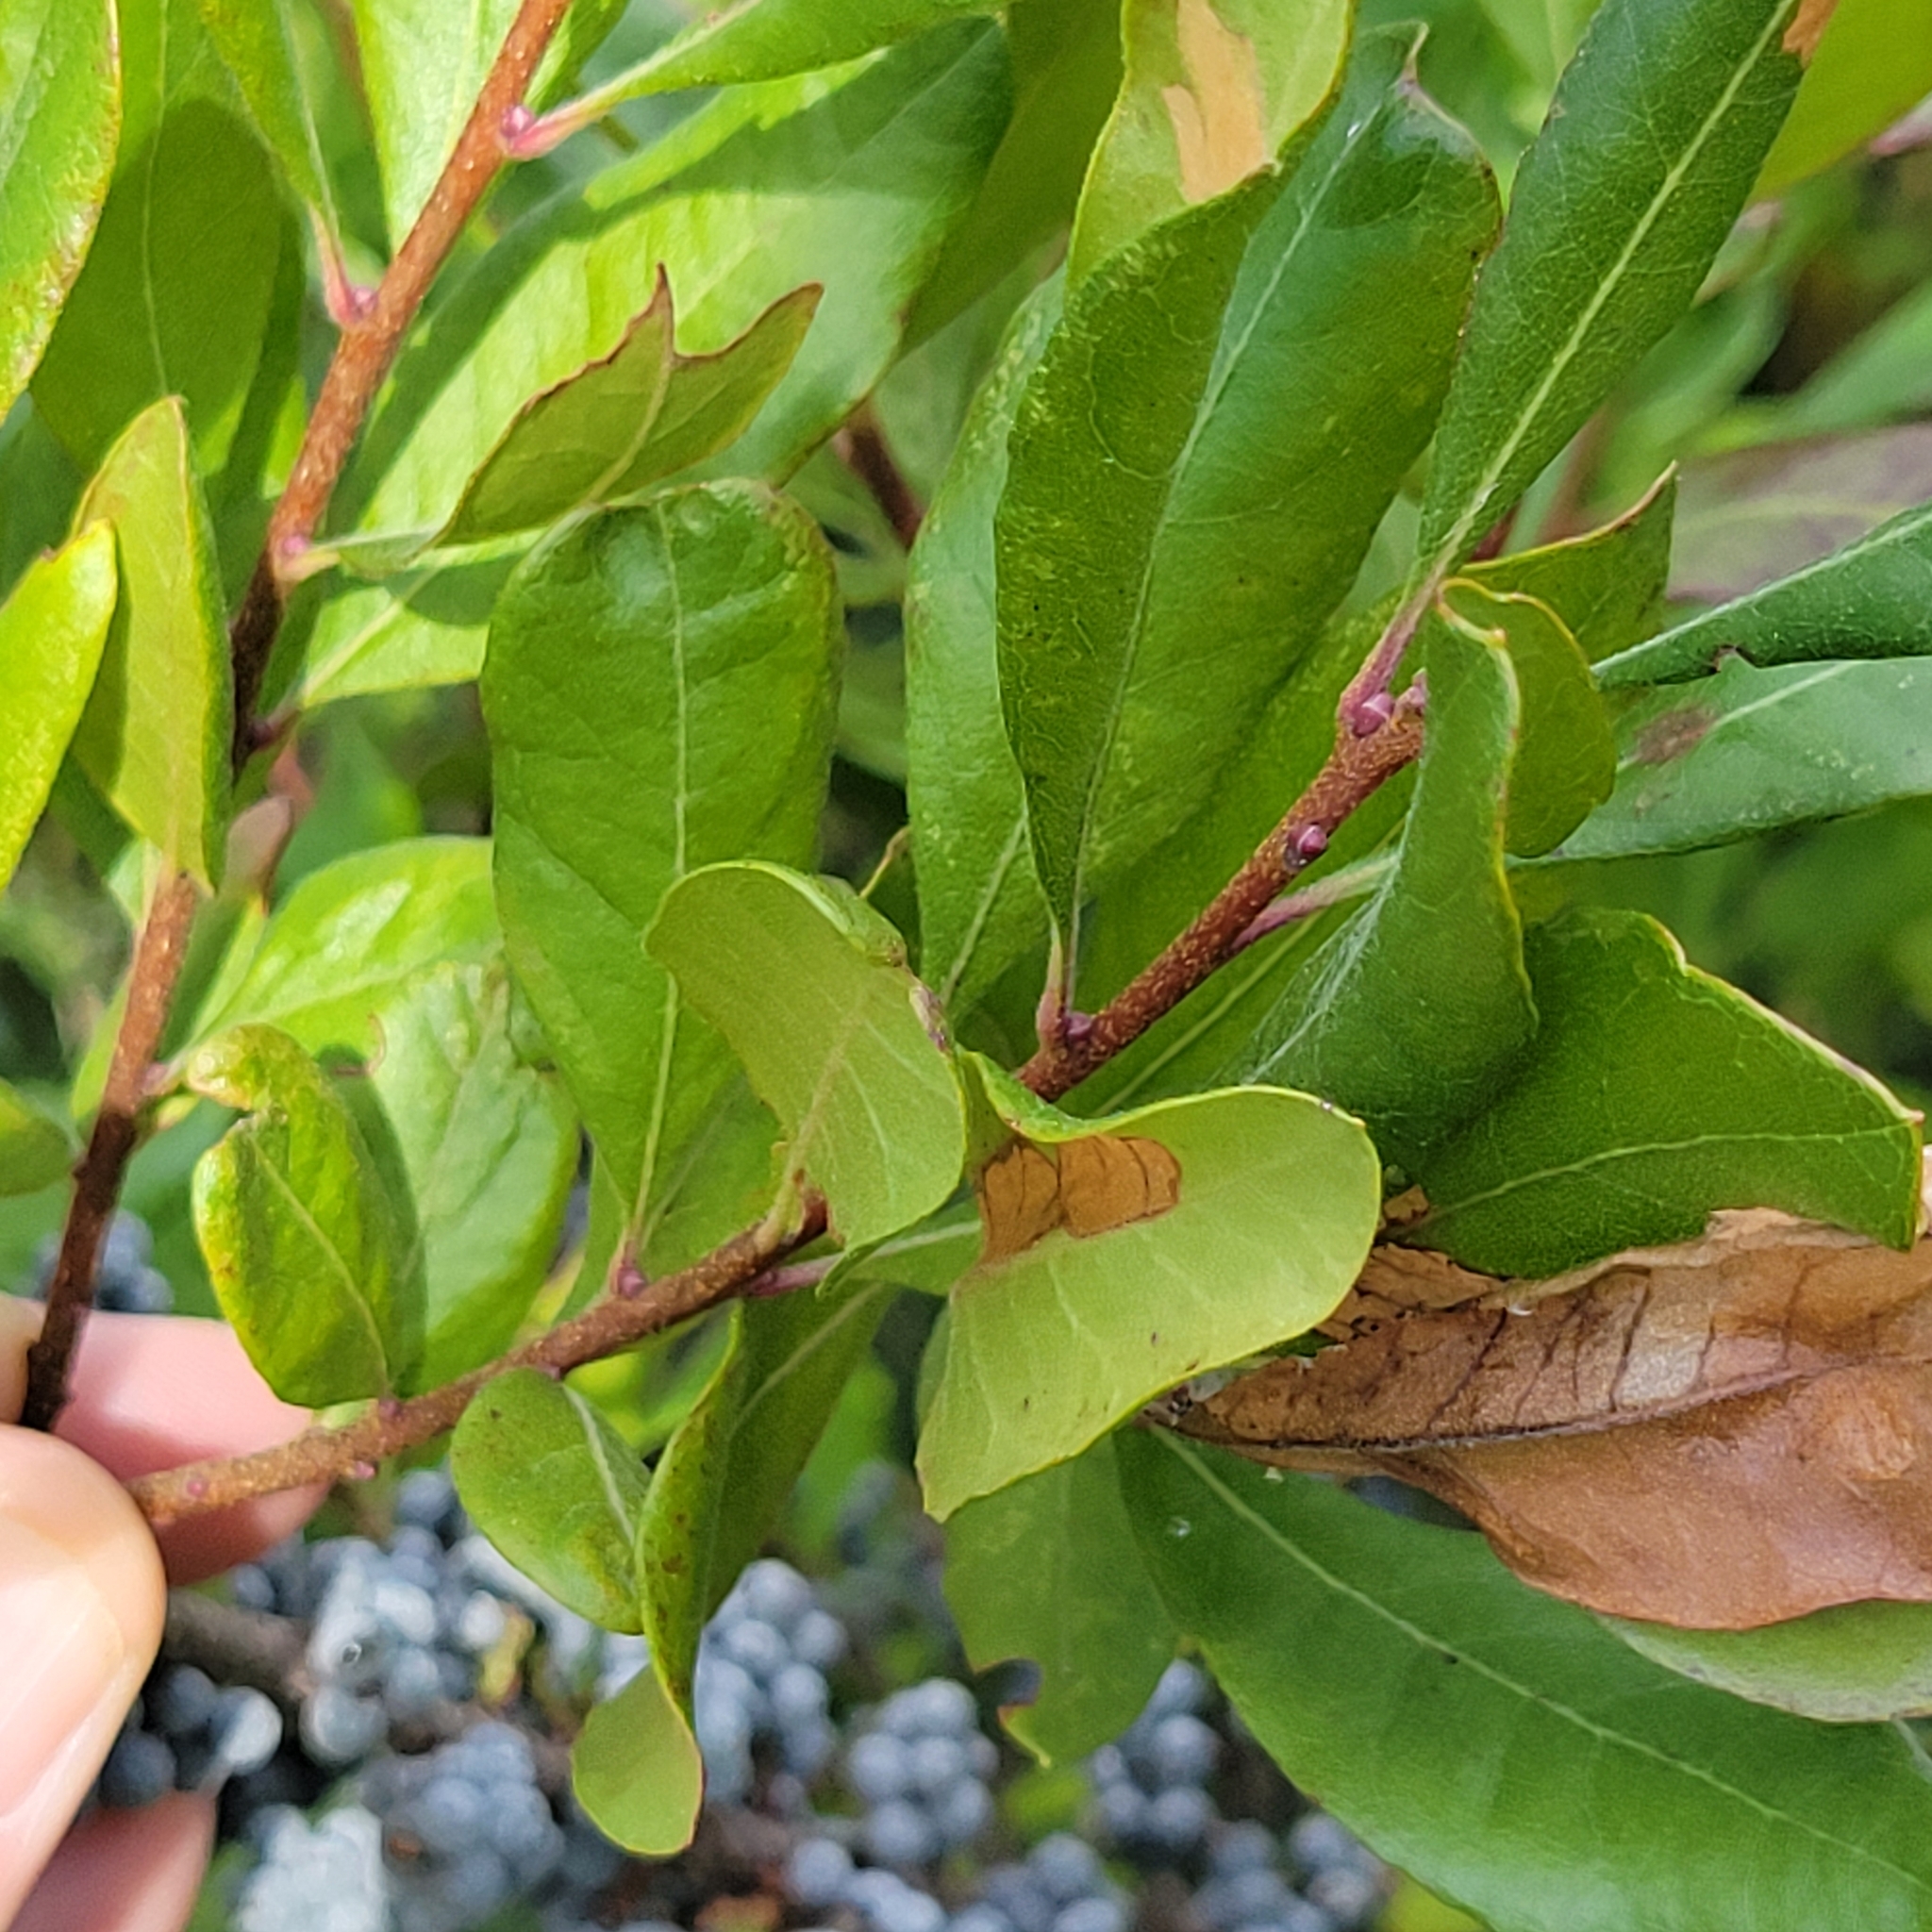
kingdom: Plantae
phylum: Tracheophyta
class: Magnoliopsida
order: Fagales
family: Myricaceae
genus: Morella
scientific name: Morella pensylvanica
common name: Northern bayberry
